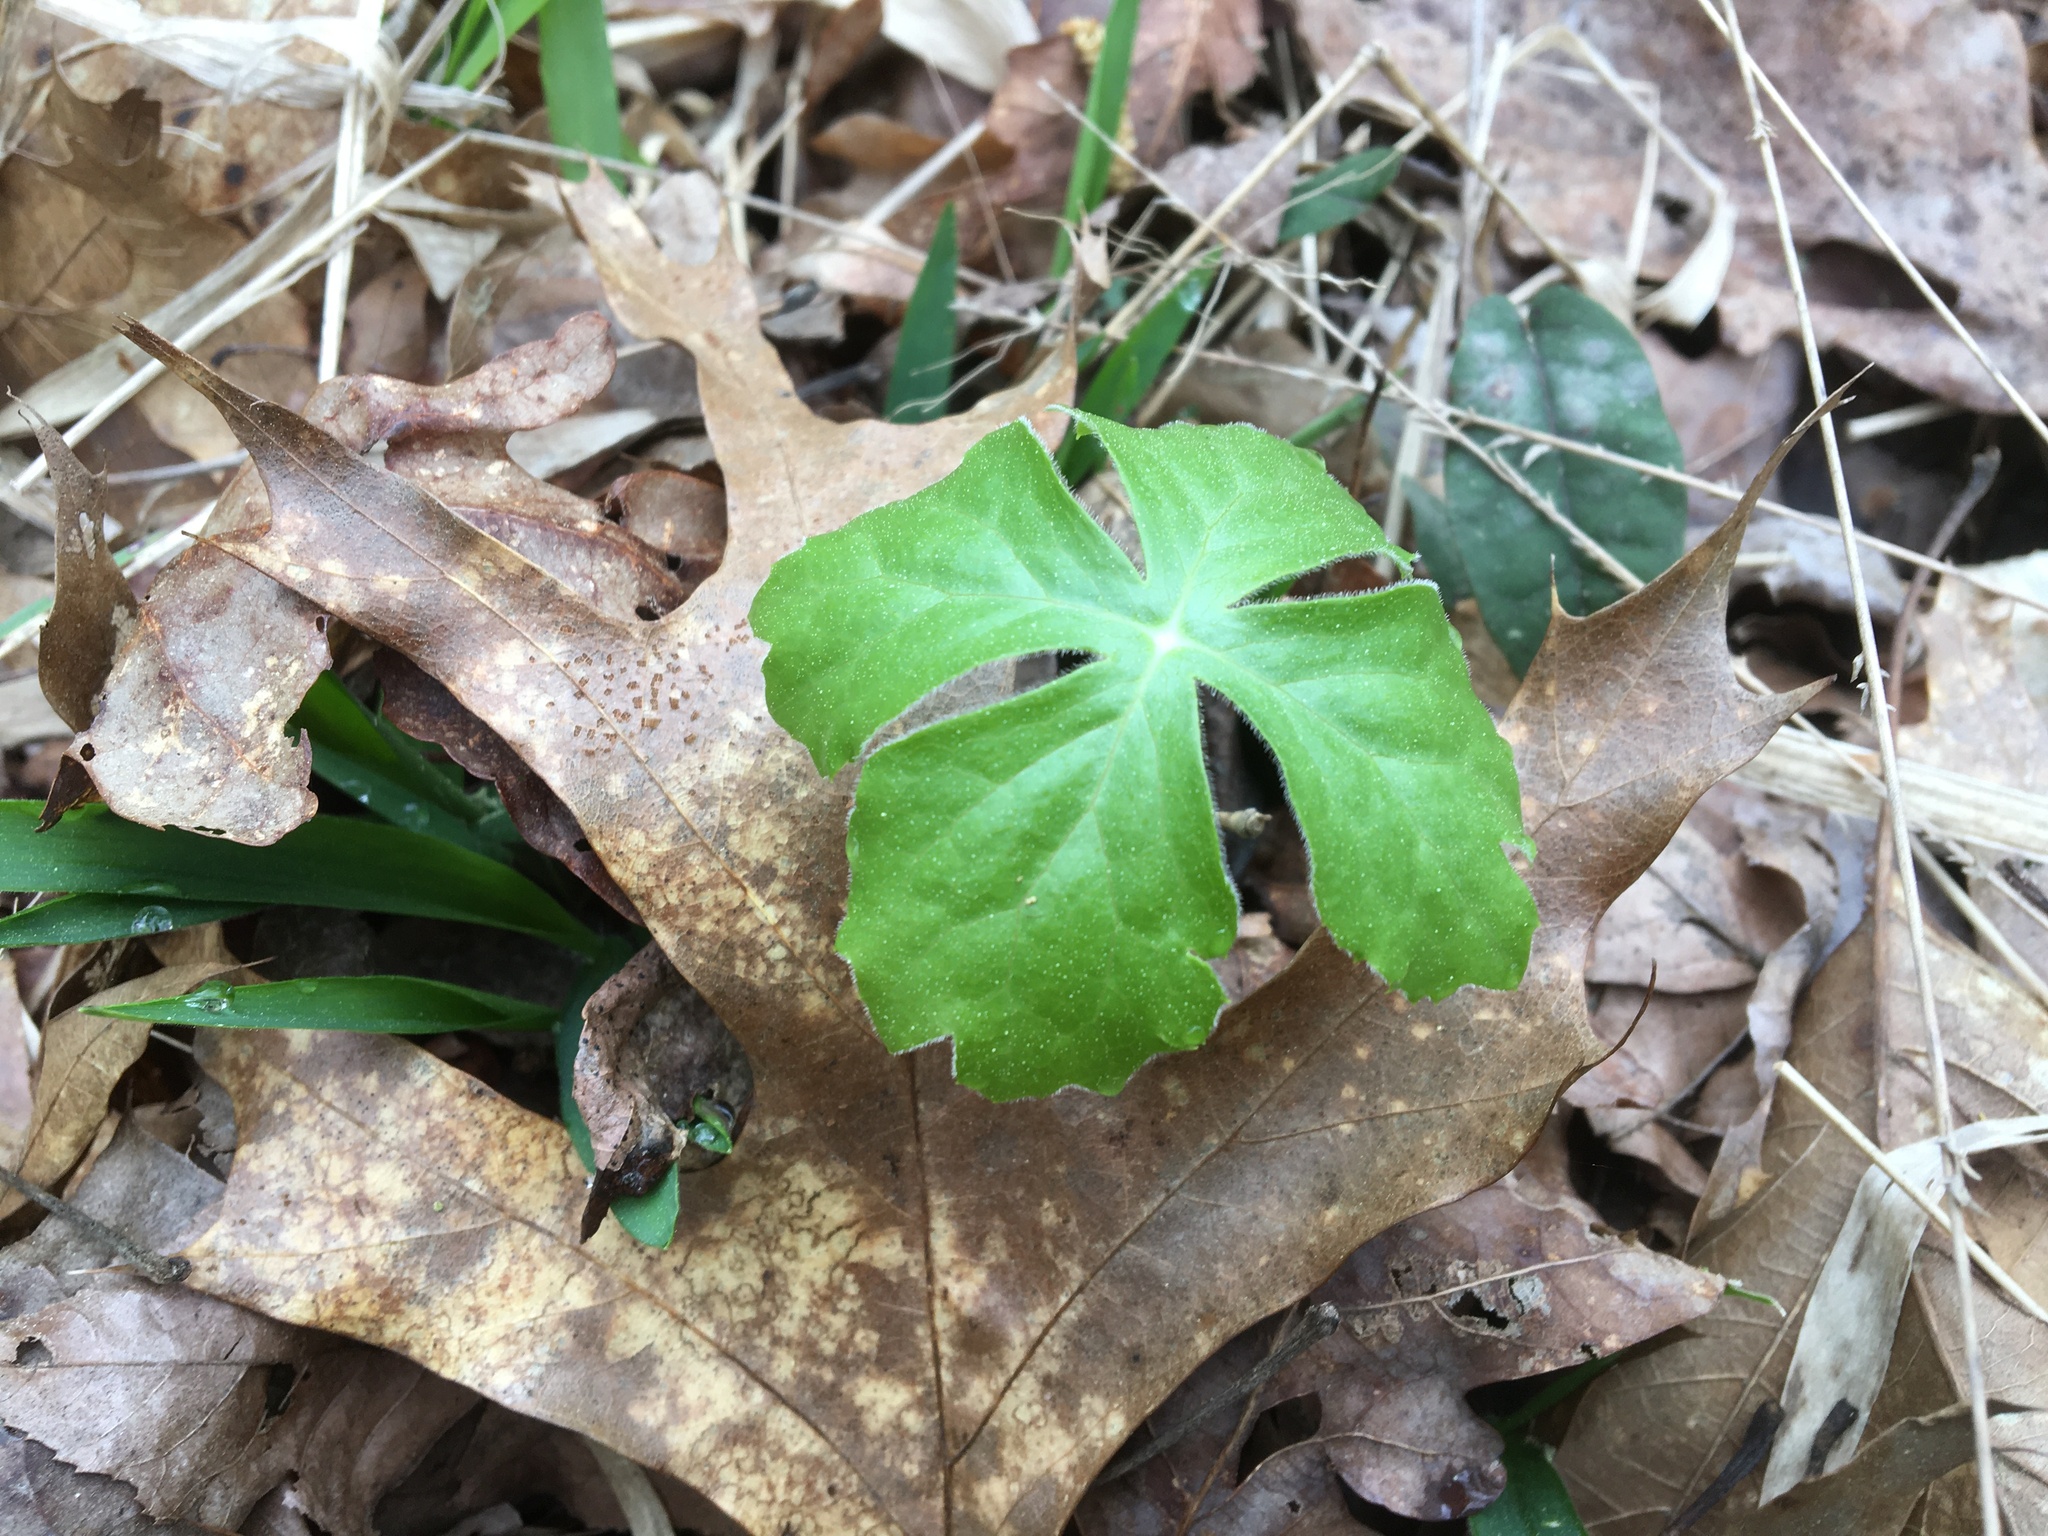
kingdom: Plantae
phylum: Tracheophyta
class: Magnoliopsida
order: Ranunculales
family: Berberidaceae
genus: Podophyllum
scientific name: Podophyllum peltatum
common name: Wild mandrake
